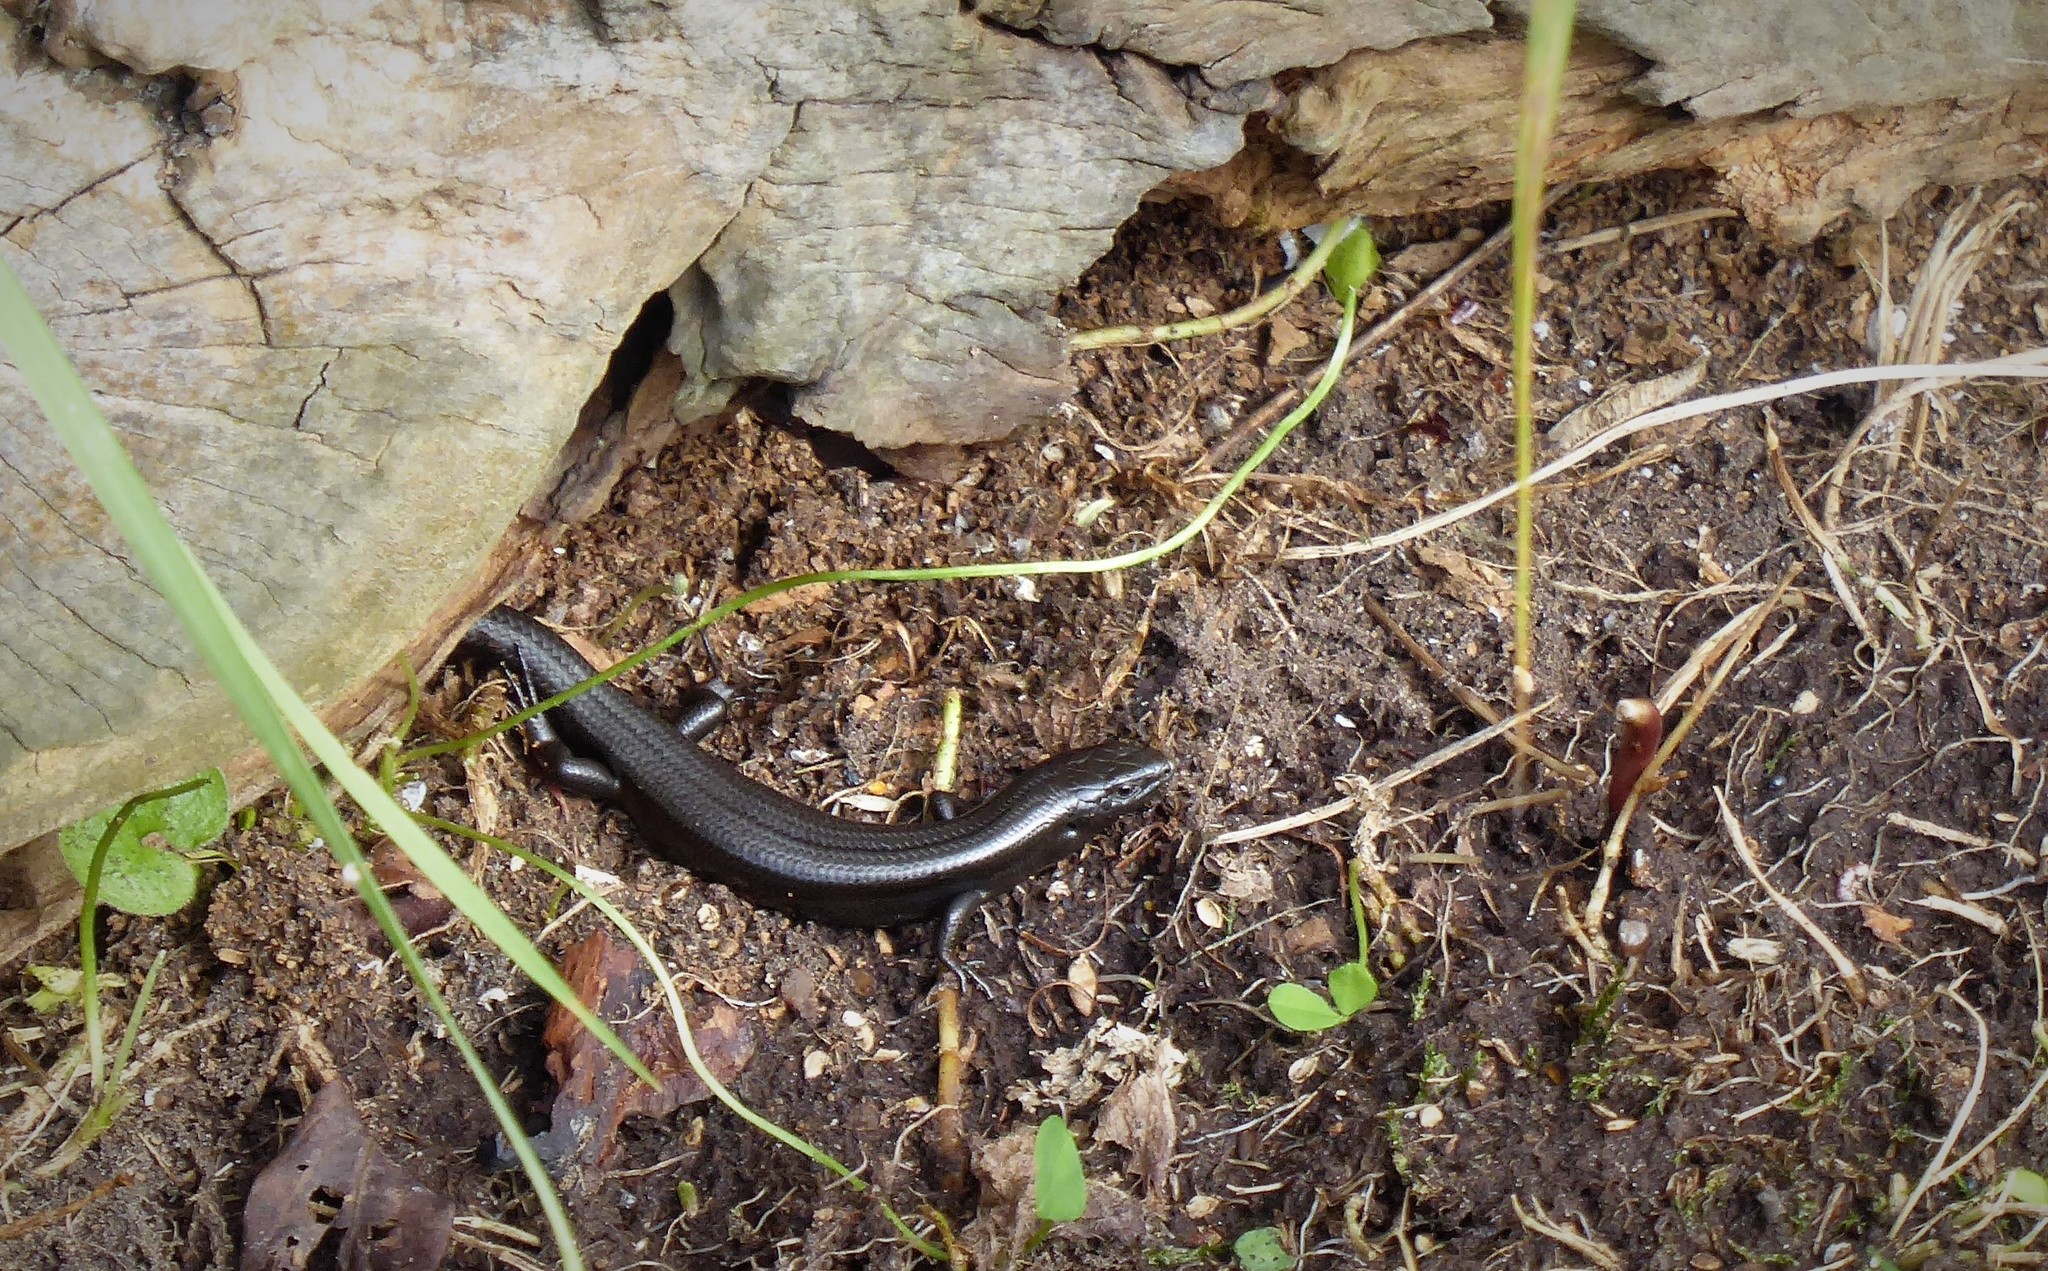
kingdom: Animalia
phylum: Chordata
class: Squamata
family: Scincidae
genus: Oligosoma
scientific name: Oligosoma polychroma
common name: Common new zealand skink
